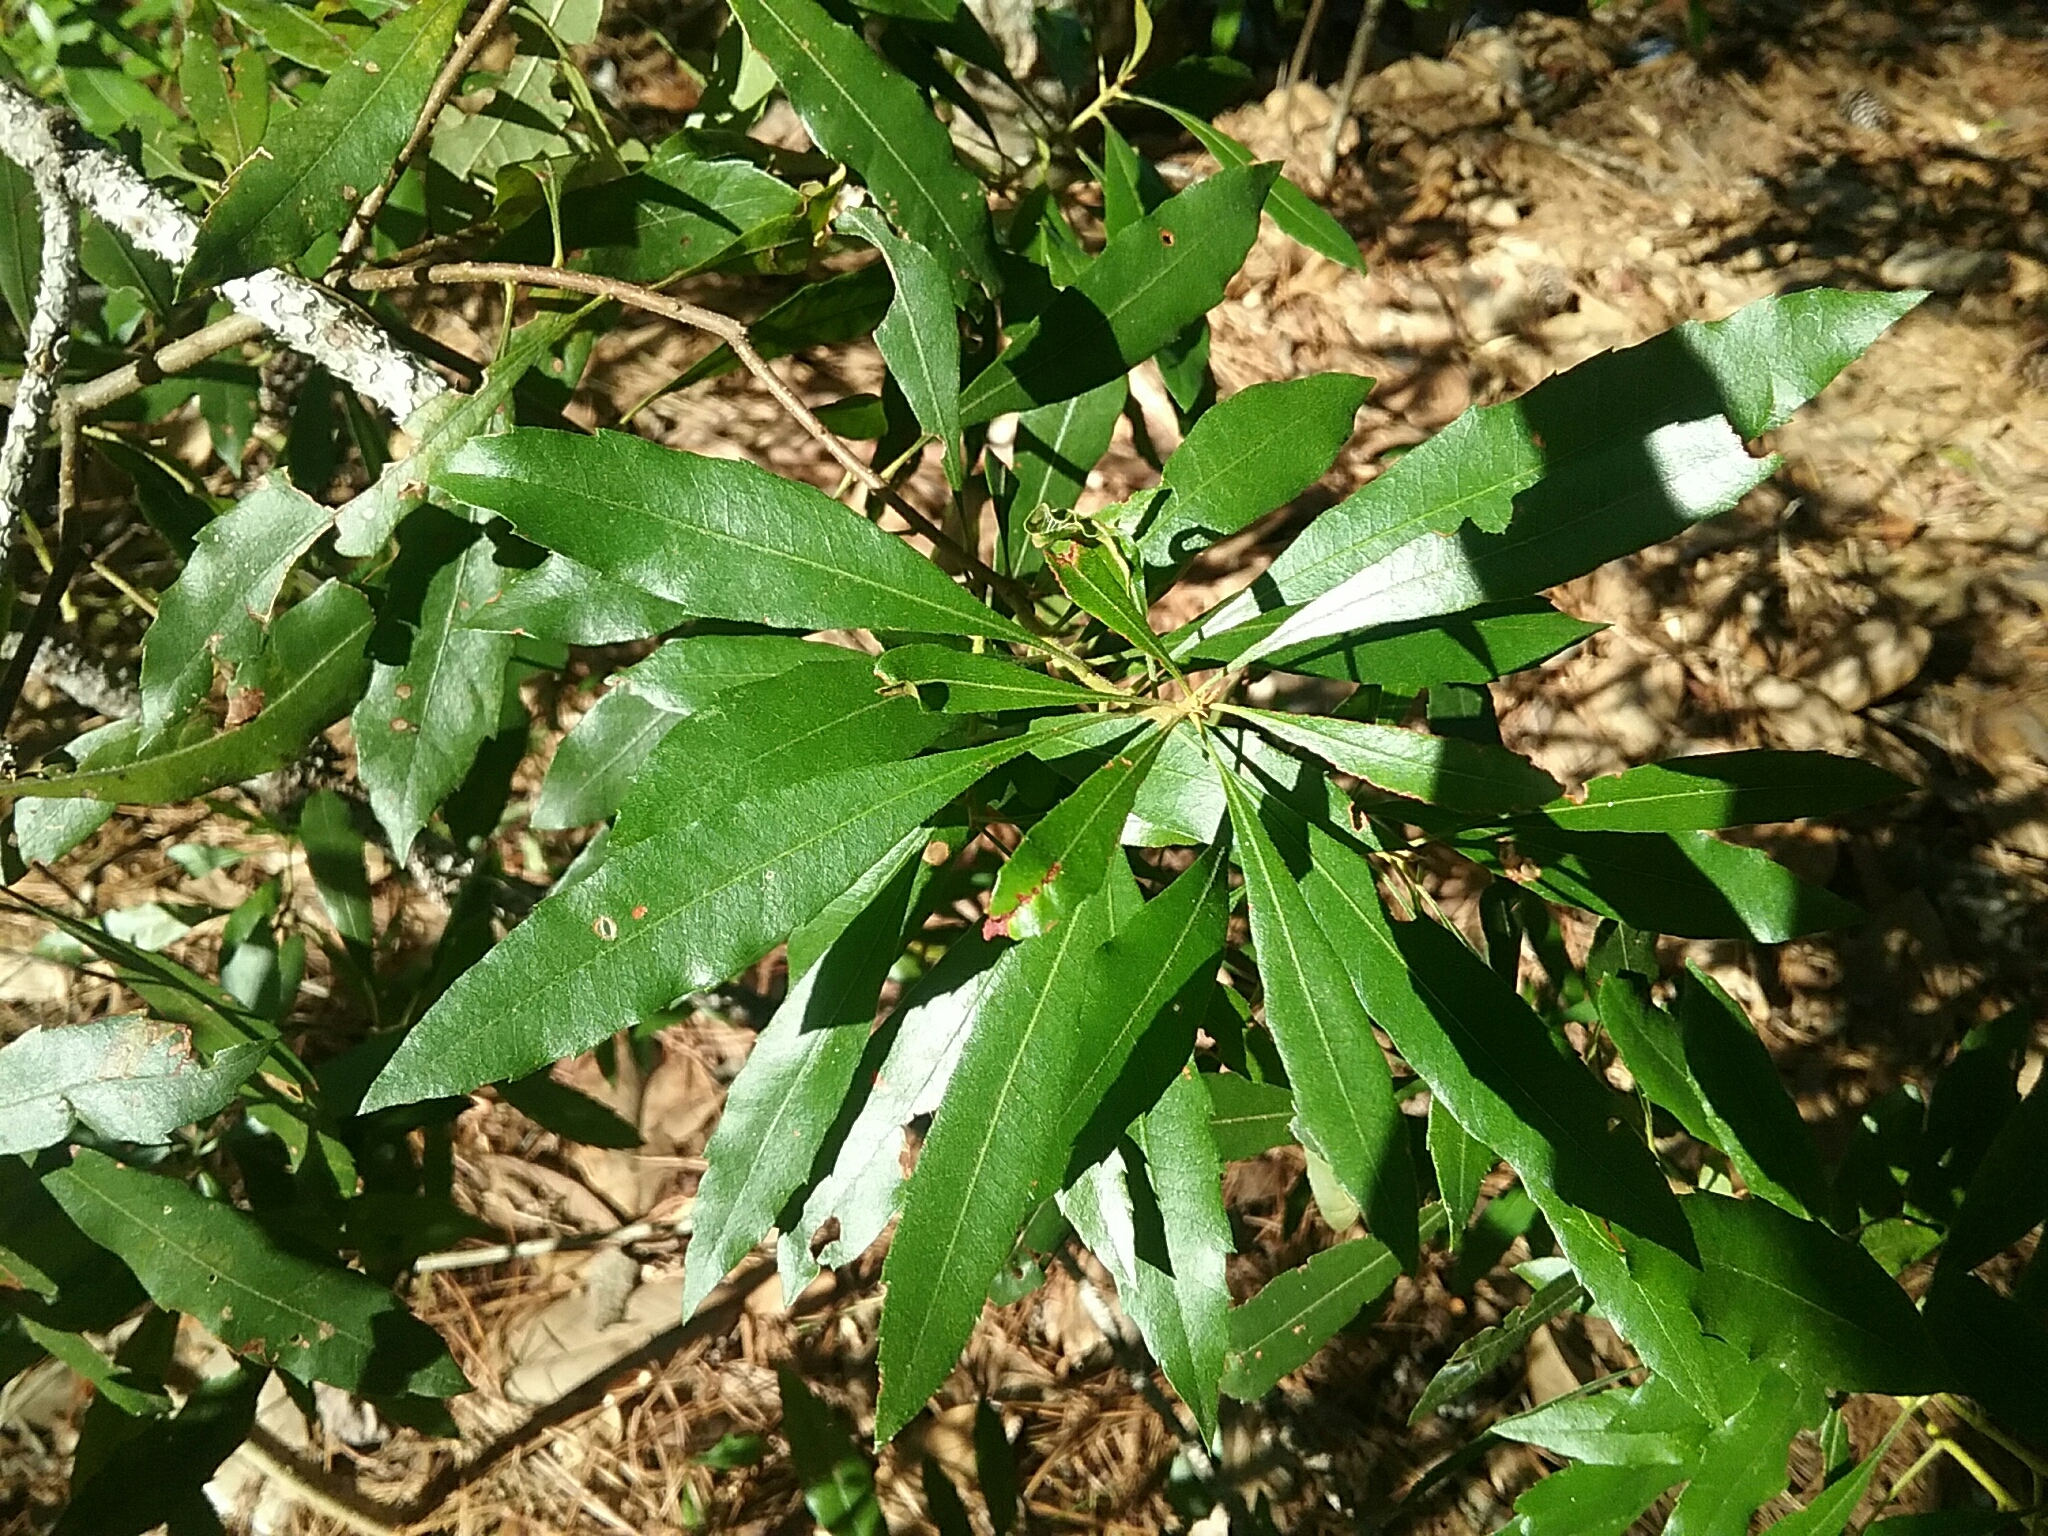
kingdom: Plantae
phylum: Tracheophyta
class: Magnoliopsida
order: Fagales
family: Myricaceae
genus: Morella
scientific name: Morella cerifera
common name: Wax myrtle
